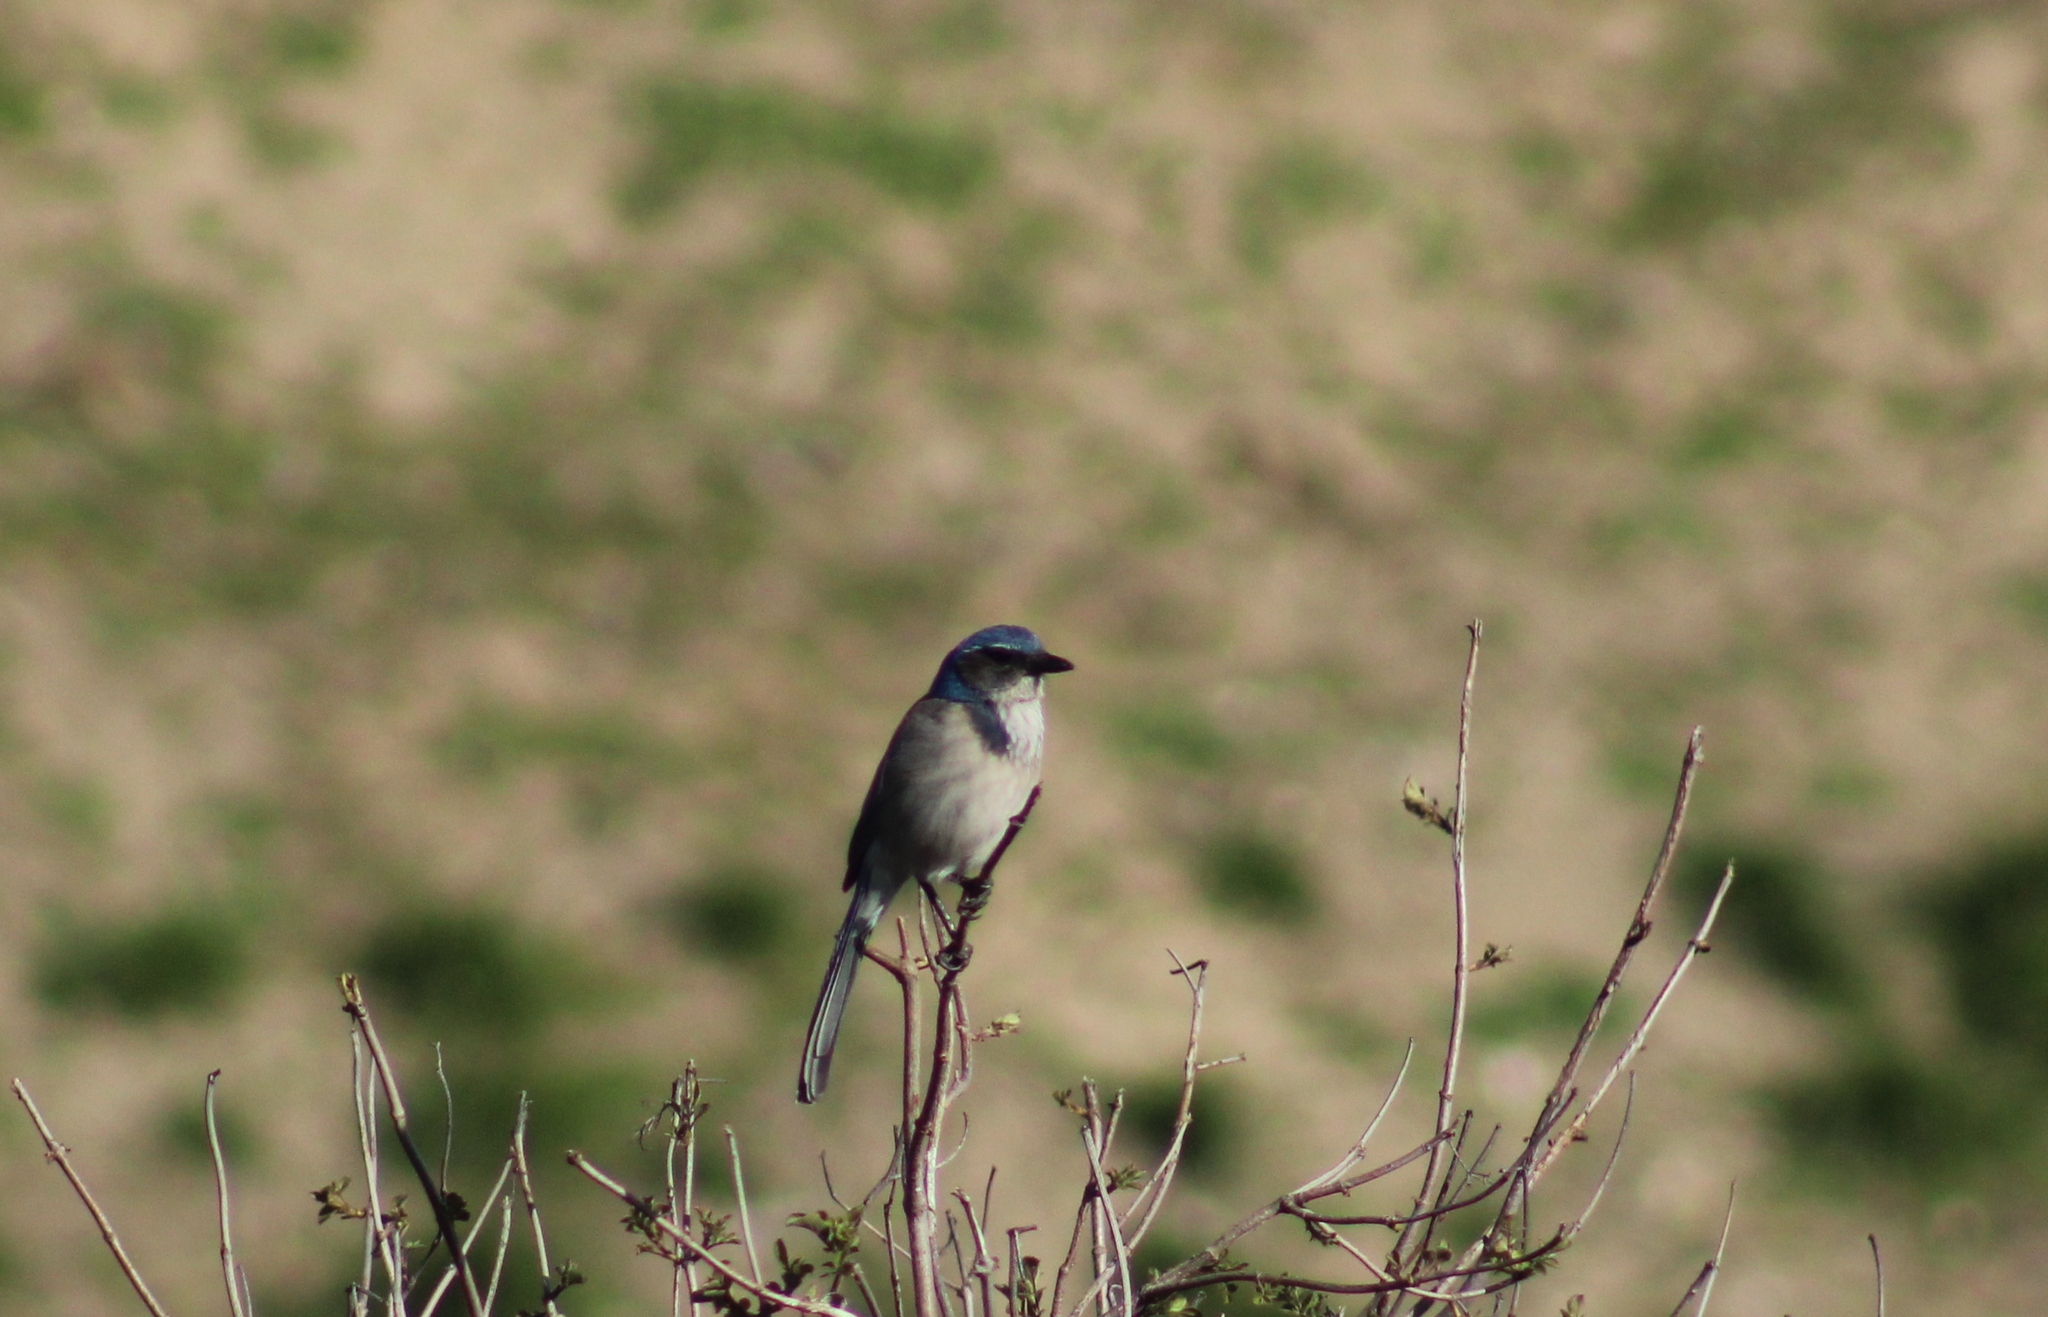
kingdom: Animalia
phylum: Chordata
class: Aves
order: Passeriformes
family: Corvidae
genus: Aphelocoma
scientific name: Aphelocoma californica
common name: California scrub-jay
